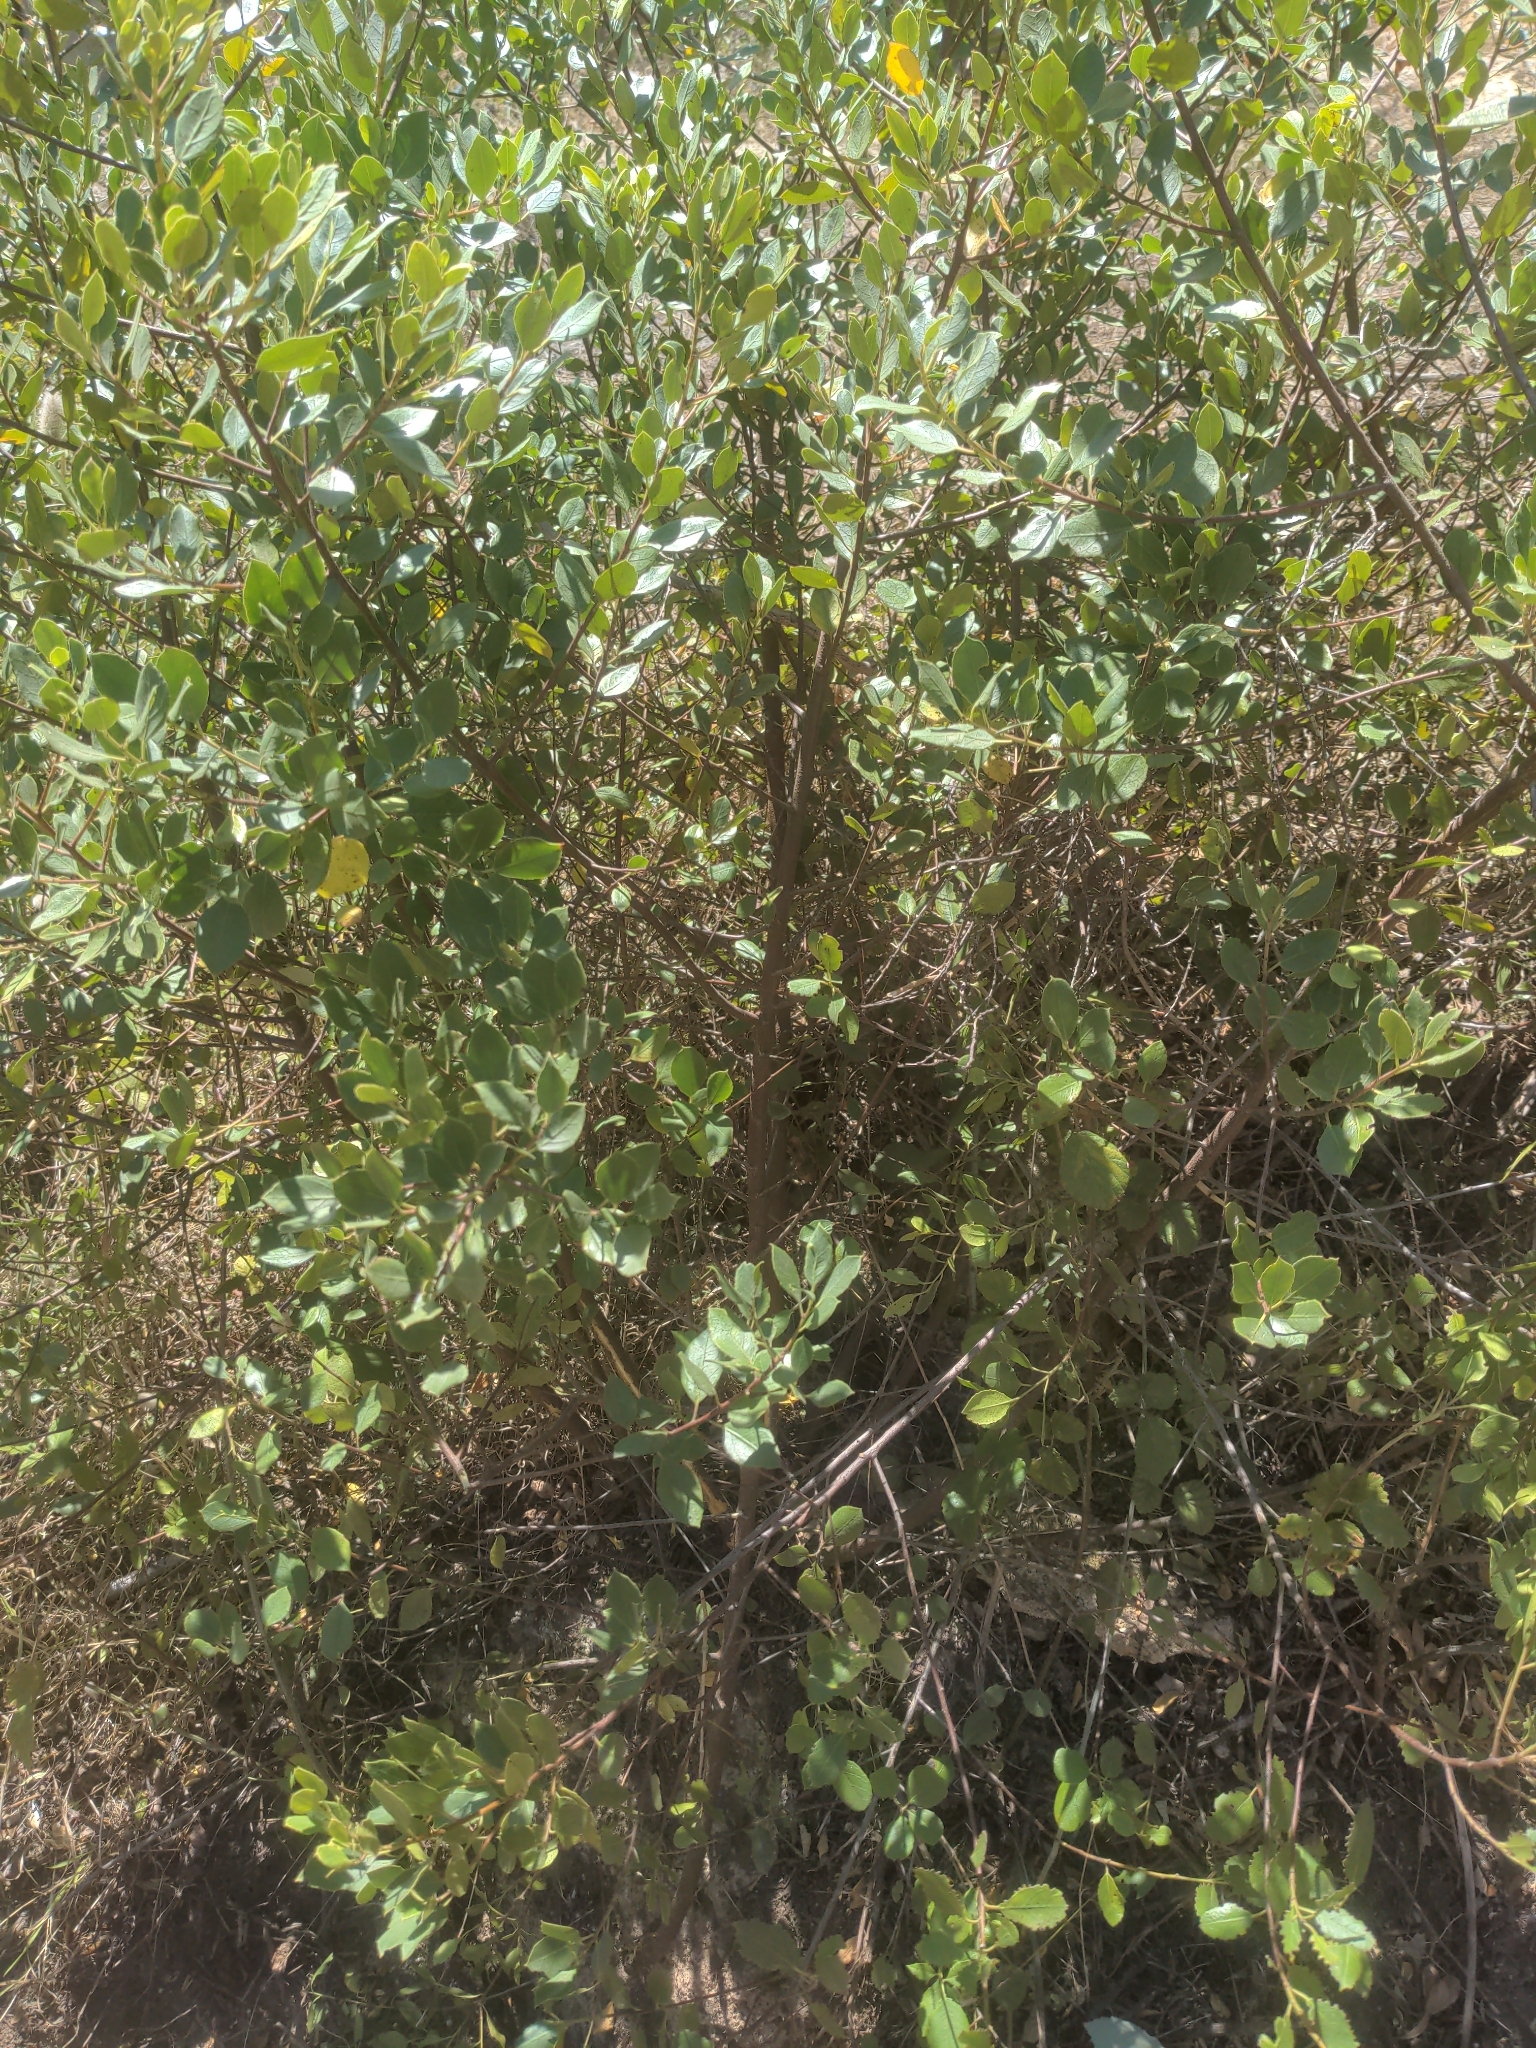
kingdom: Plantae
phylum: Tracheophyta
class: Magnoliopsida
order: Rosales
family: Rhamnaceae
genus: Rhamnus
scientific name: Rhamnus alaternus
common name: Mediterranean buckthorn
